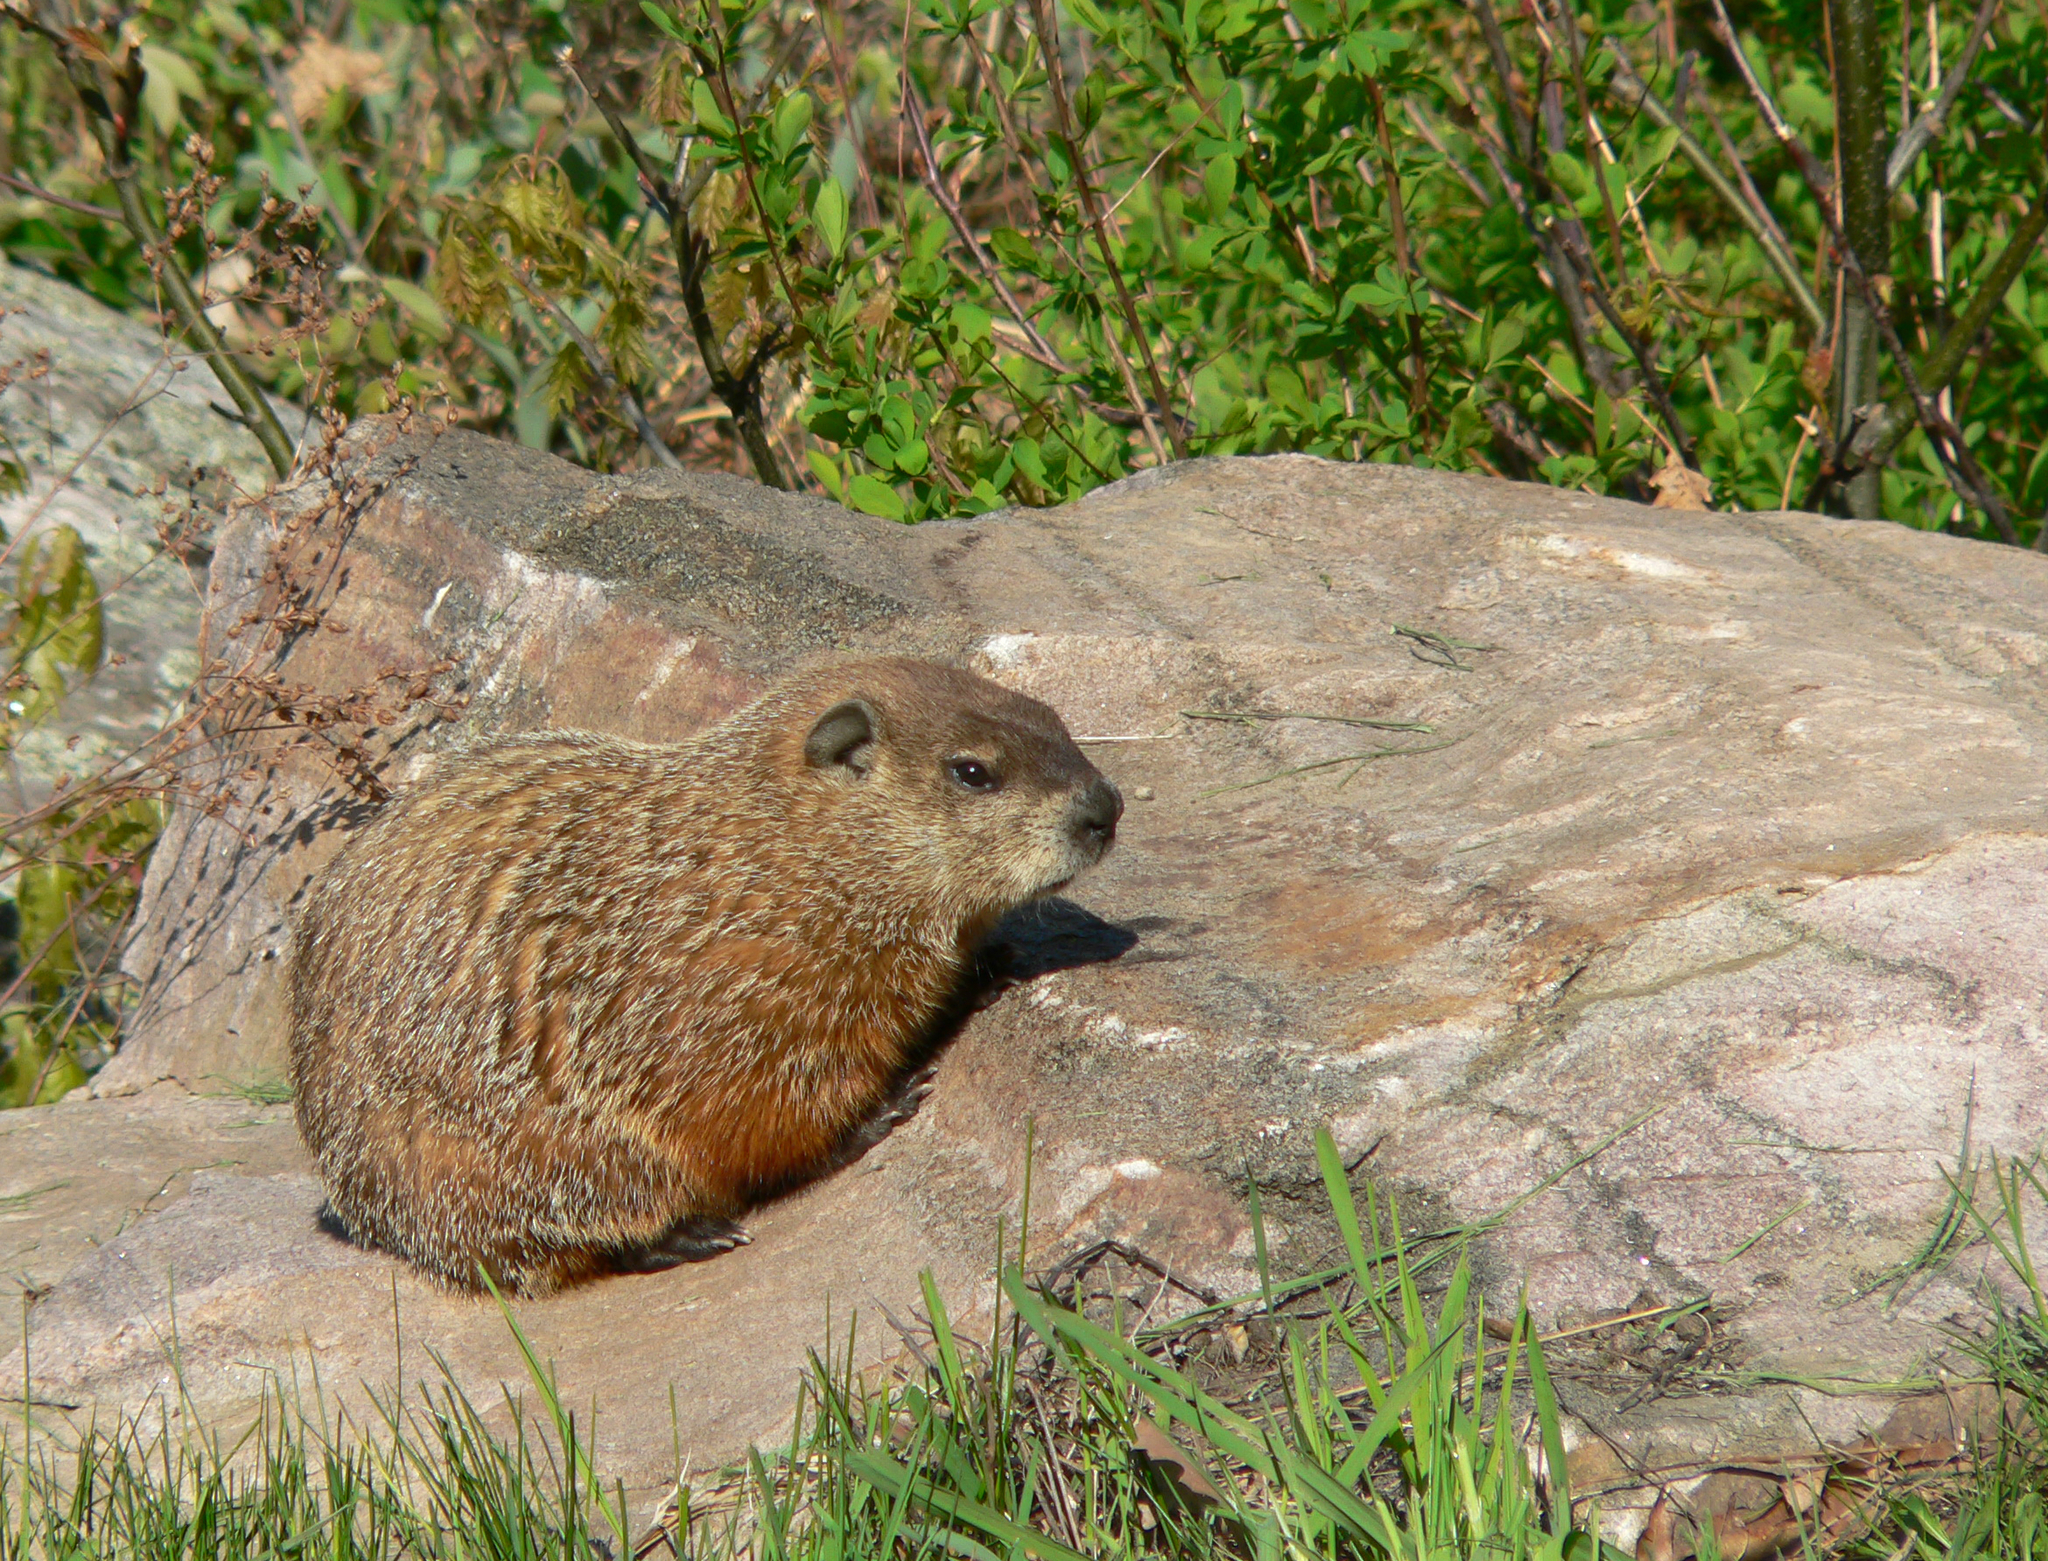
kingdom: Animalia
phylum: Chordata
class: Mammalia
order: Rodentia
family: Sciuridae
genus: Marmota
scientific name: Marmota monax
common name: Groundhog
